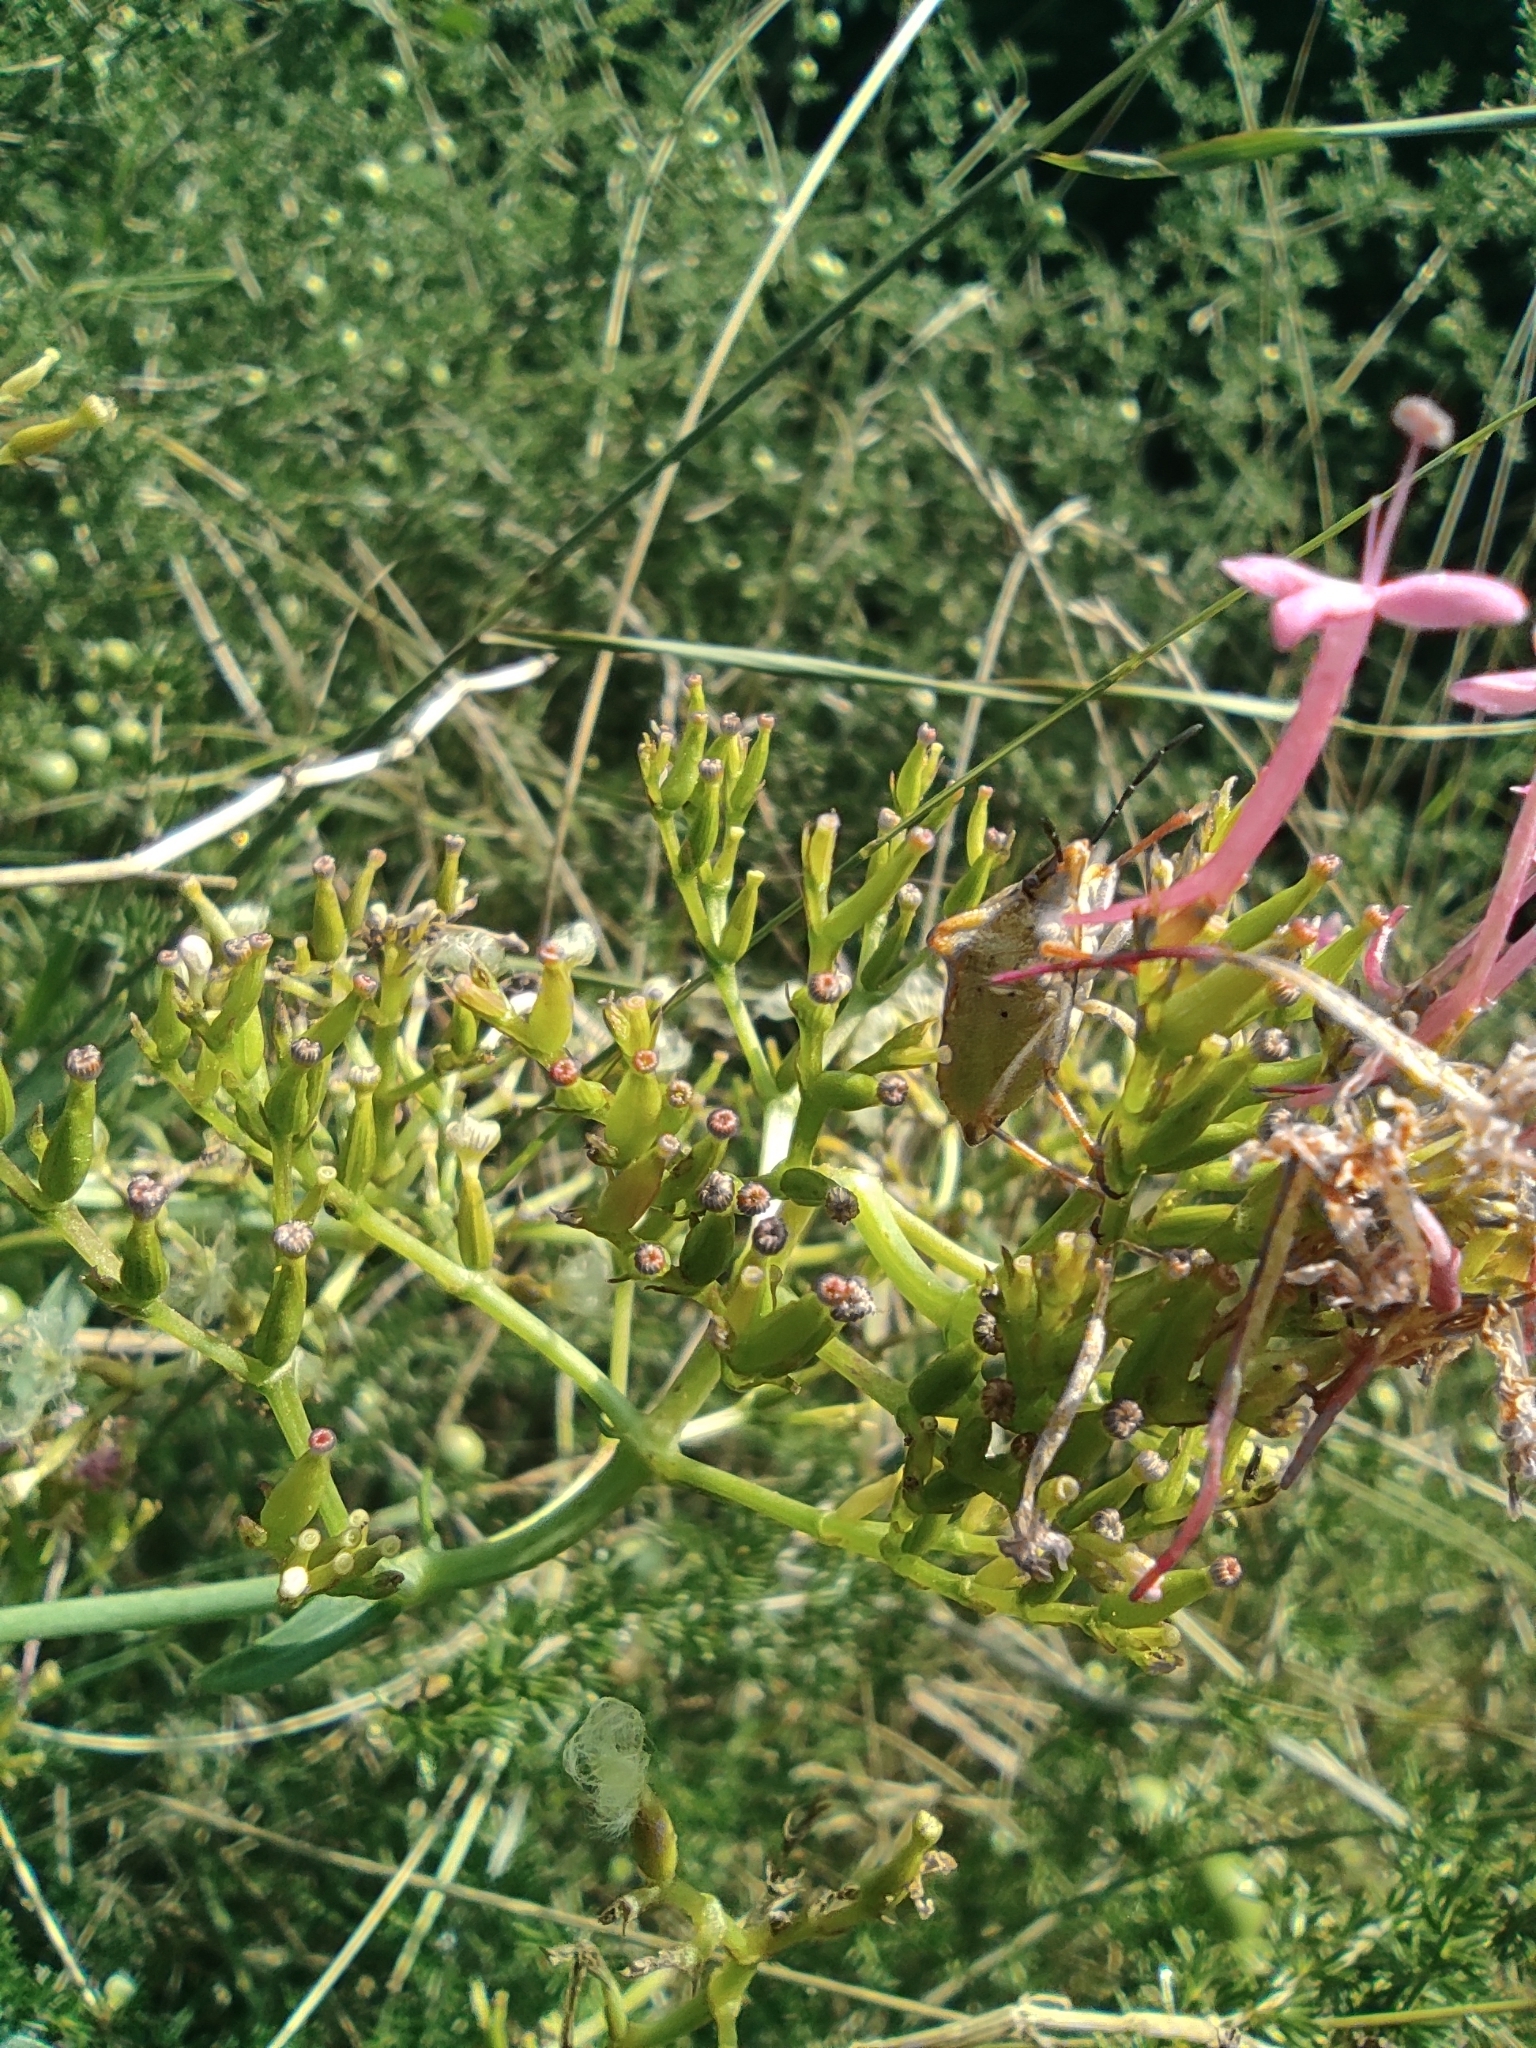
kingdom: Animalia
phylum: Arthropoda
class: Insecta
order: Hemiptera
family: Pentatomidae
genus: Carpocoris
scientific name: Carpocoris mediterraneus
